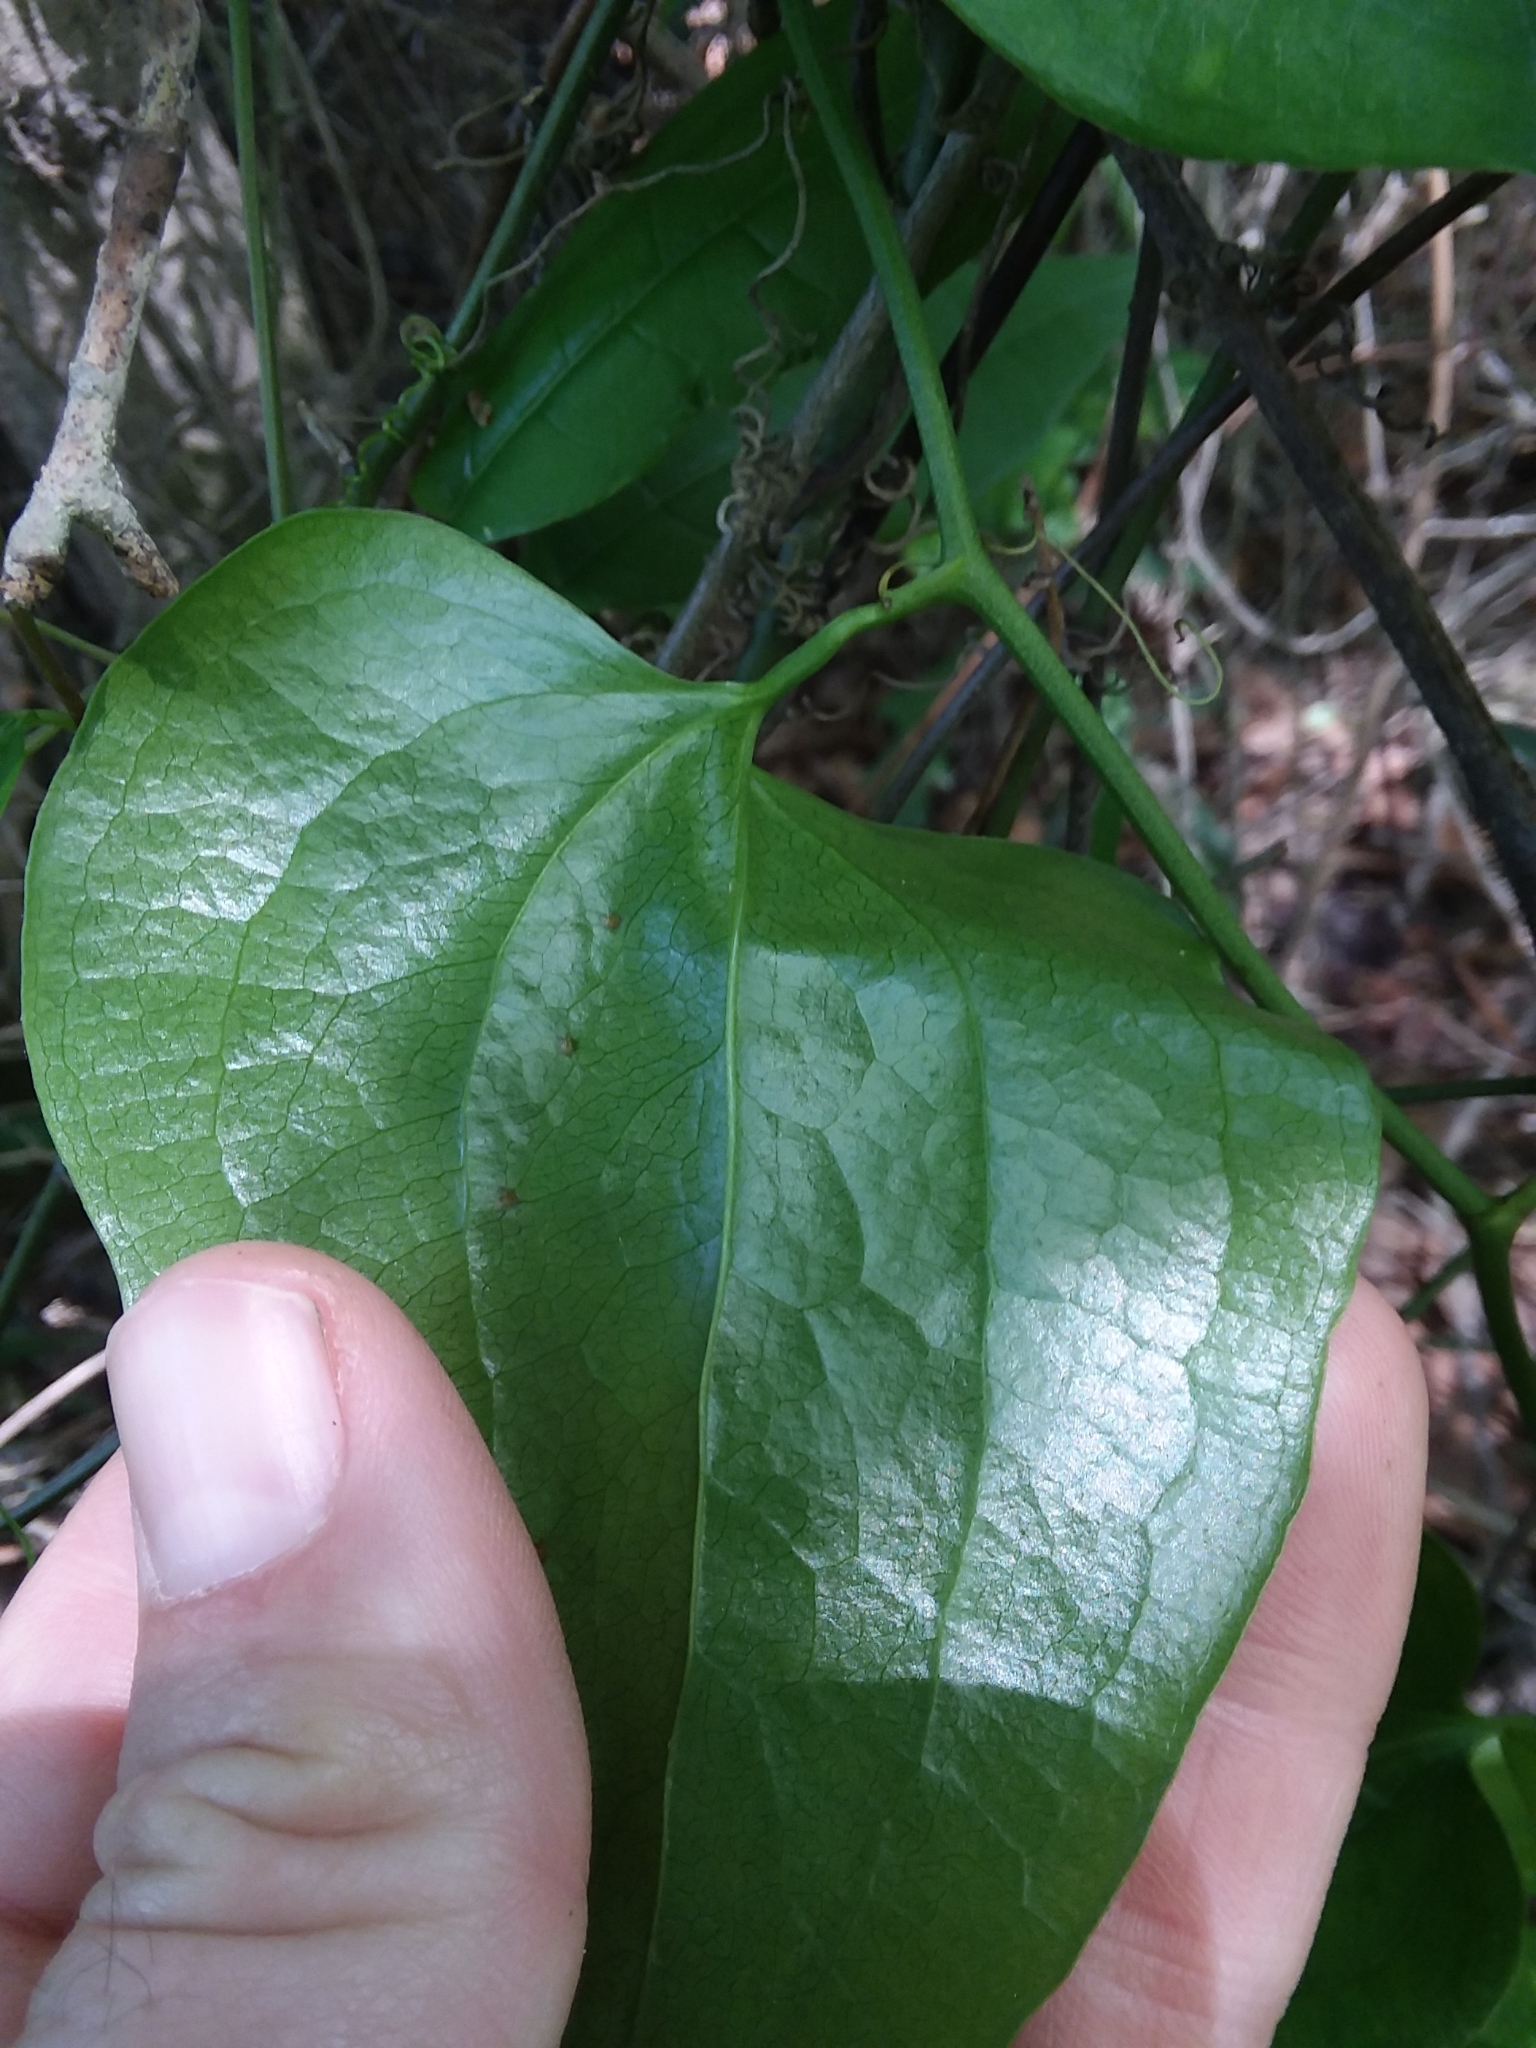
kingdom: Plantae
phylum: Tracheophyta
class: Liliopsida
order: Liliales
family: Smilacaceae
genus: Smilax
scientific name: Smilax rotundifolia
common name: Bullbriar
